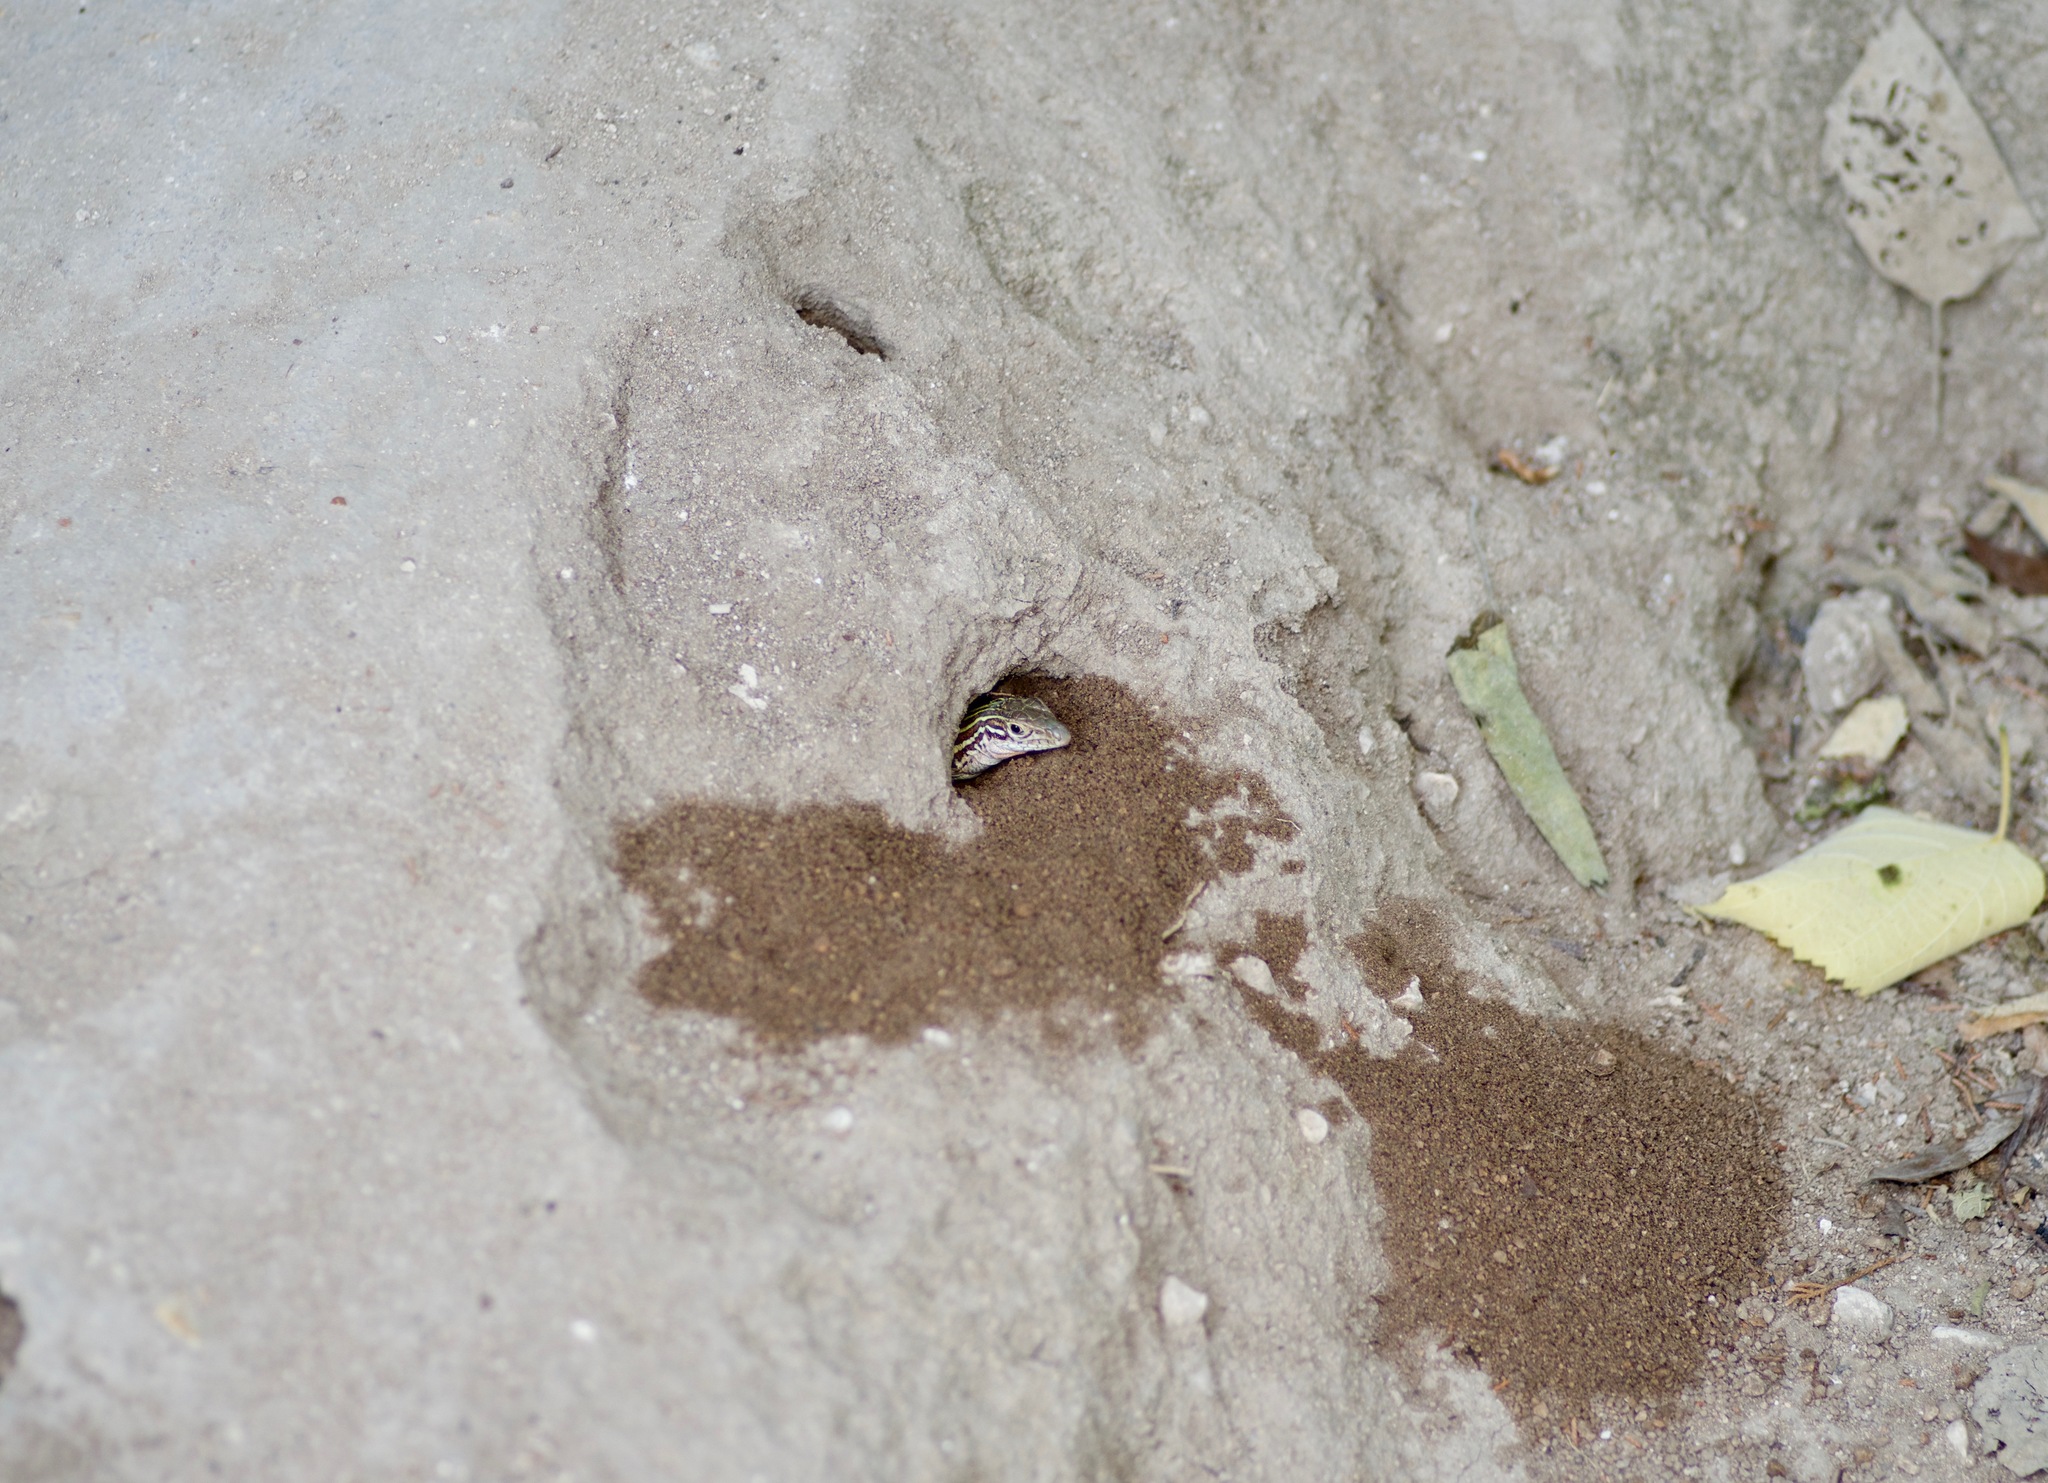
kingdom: Animalia
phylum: Chordata
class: Squamata
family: Teiidae
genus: Aspidoscelis
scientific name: Aspidoscelis gularis
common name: Eastern spotted whiptail
